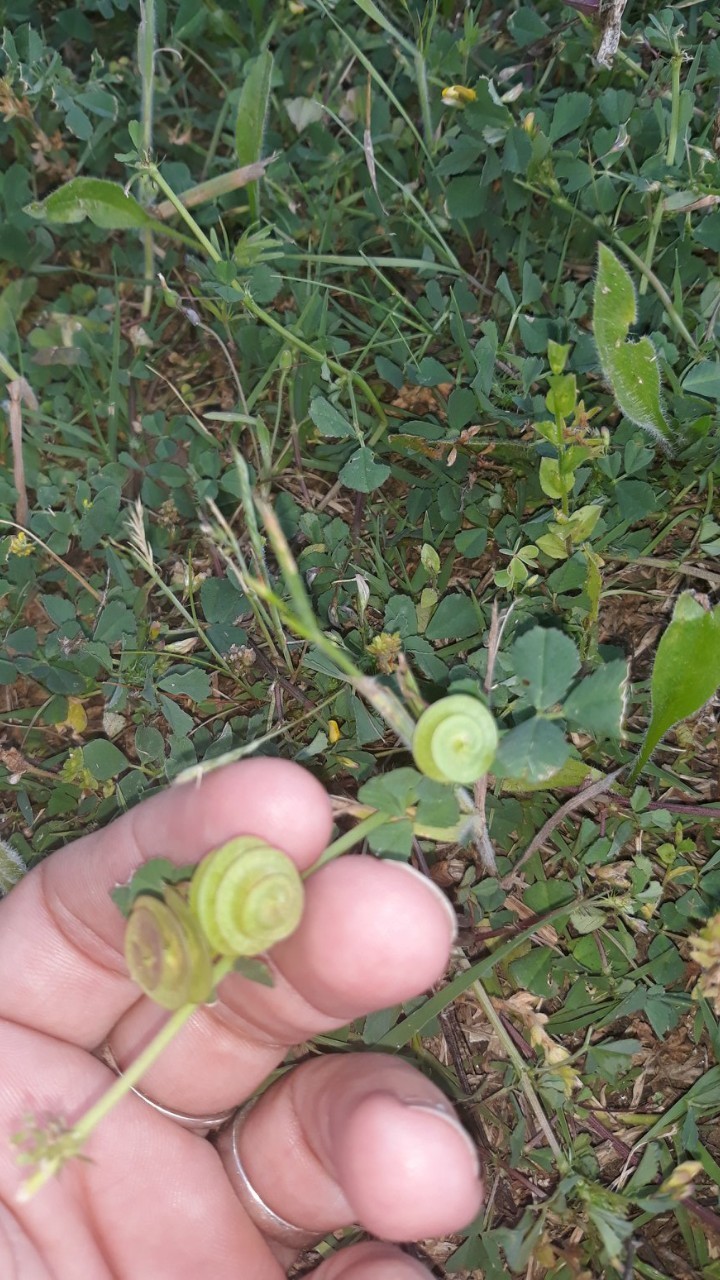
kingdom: Plantae
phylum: Tracheophyta
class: Magnoliopsida
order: Fabales
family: Fabaceae
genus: Medicago
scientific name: Medicago orbicularis
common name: Button medick
